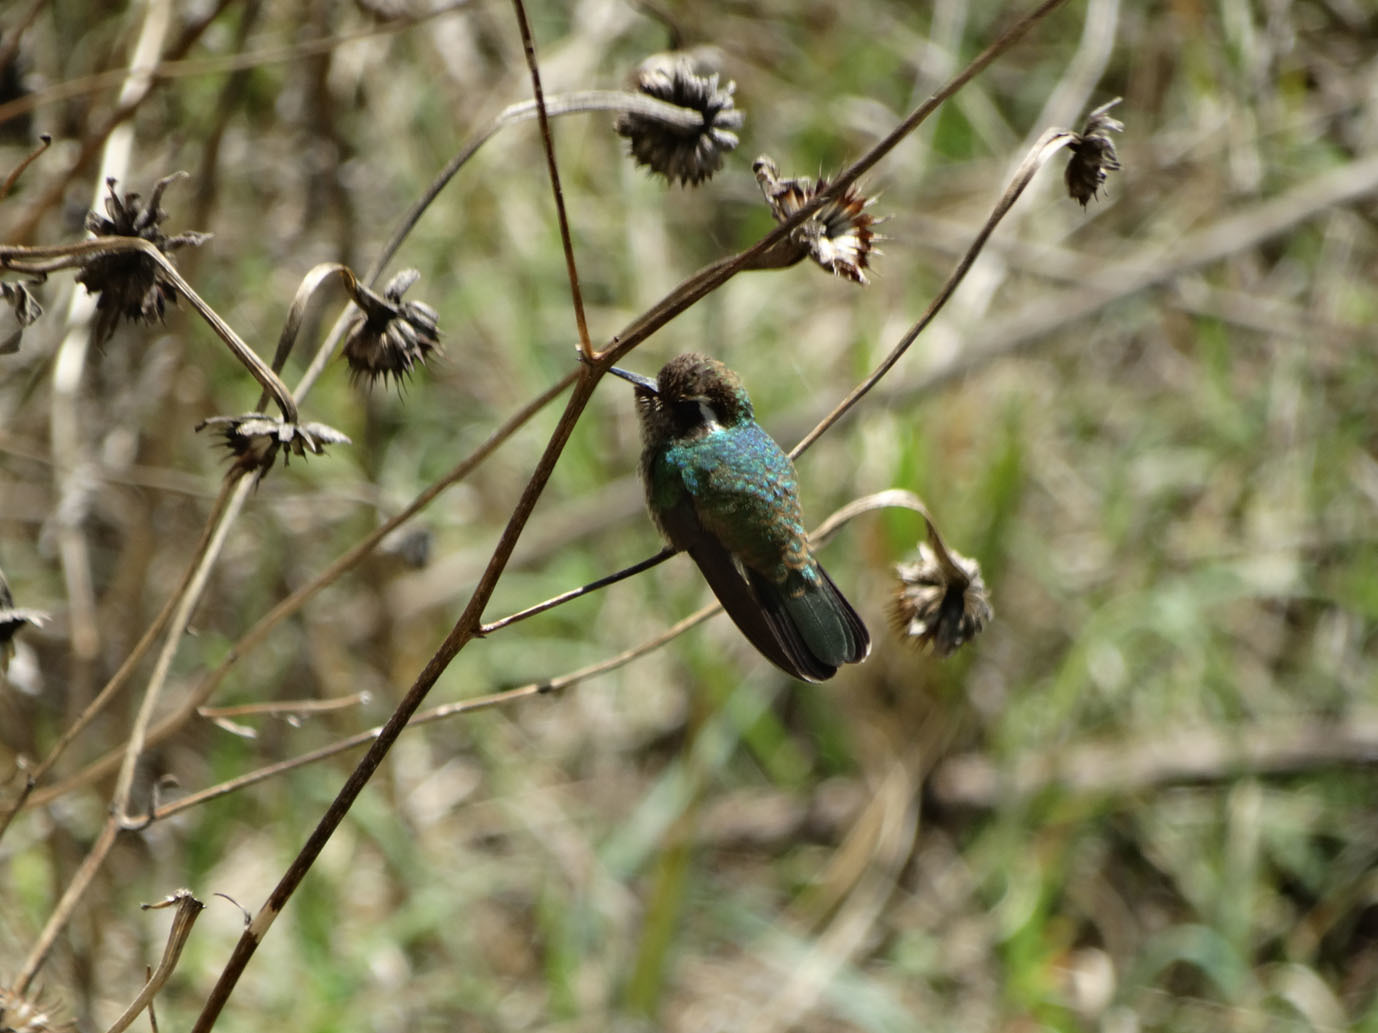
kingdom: Animalia
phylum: Chordata
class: Aves
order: Apodiformes
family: Trochilidae
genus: Basilinna
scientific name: Basilinna leucotis
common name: White-eared hummingbird
